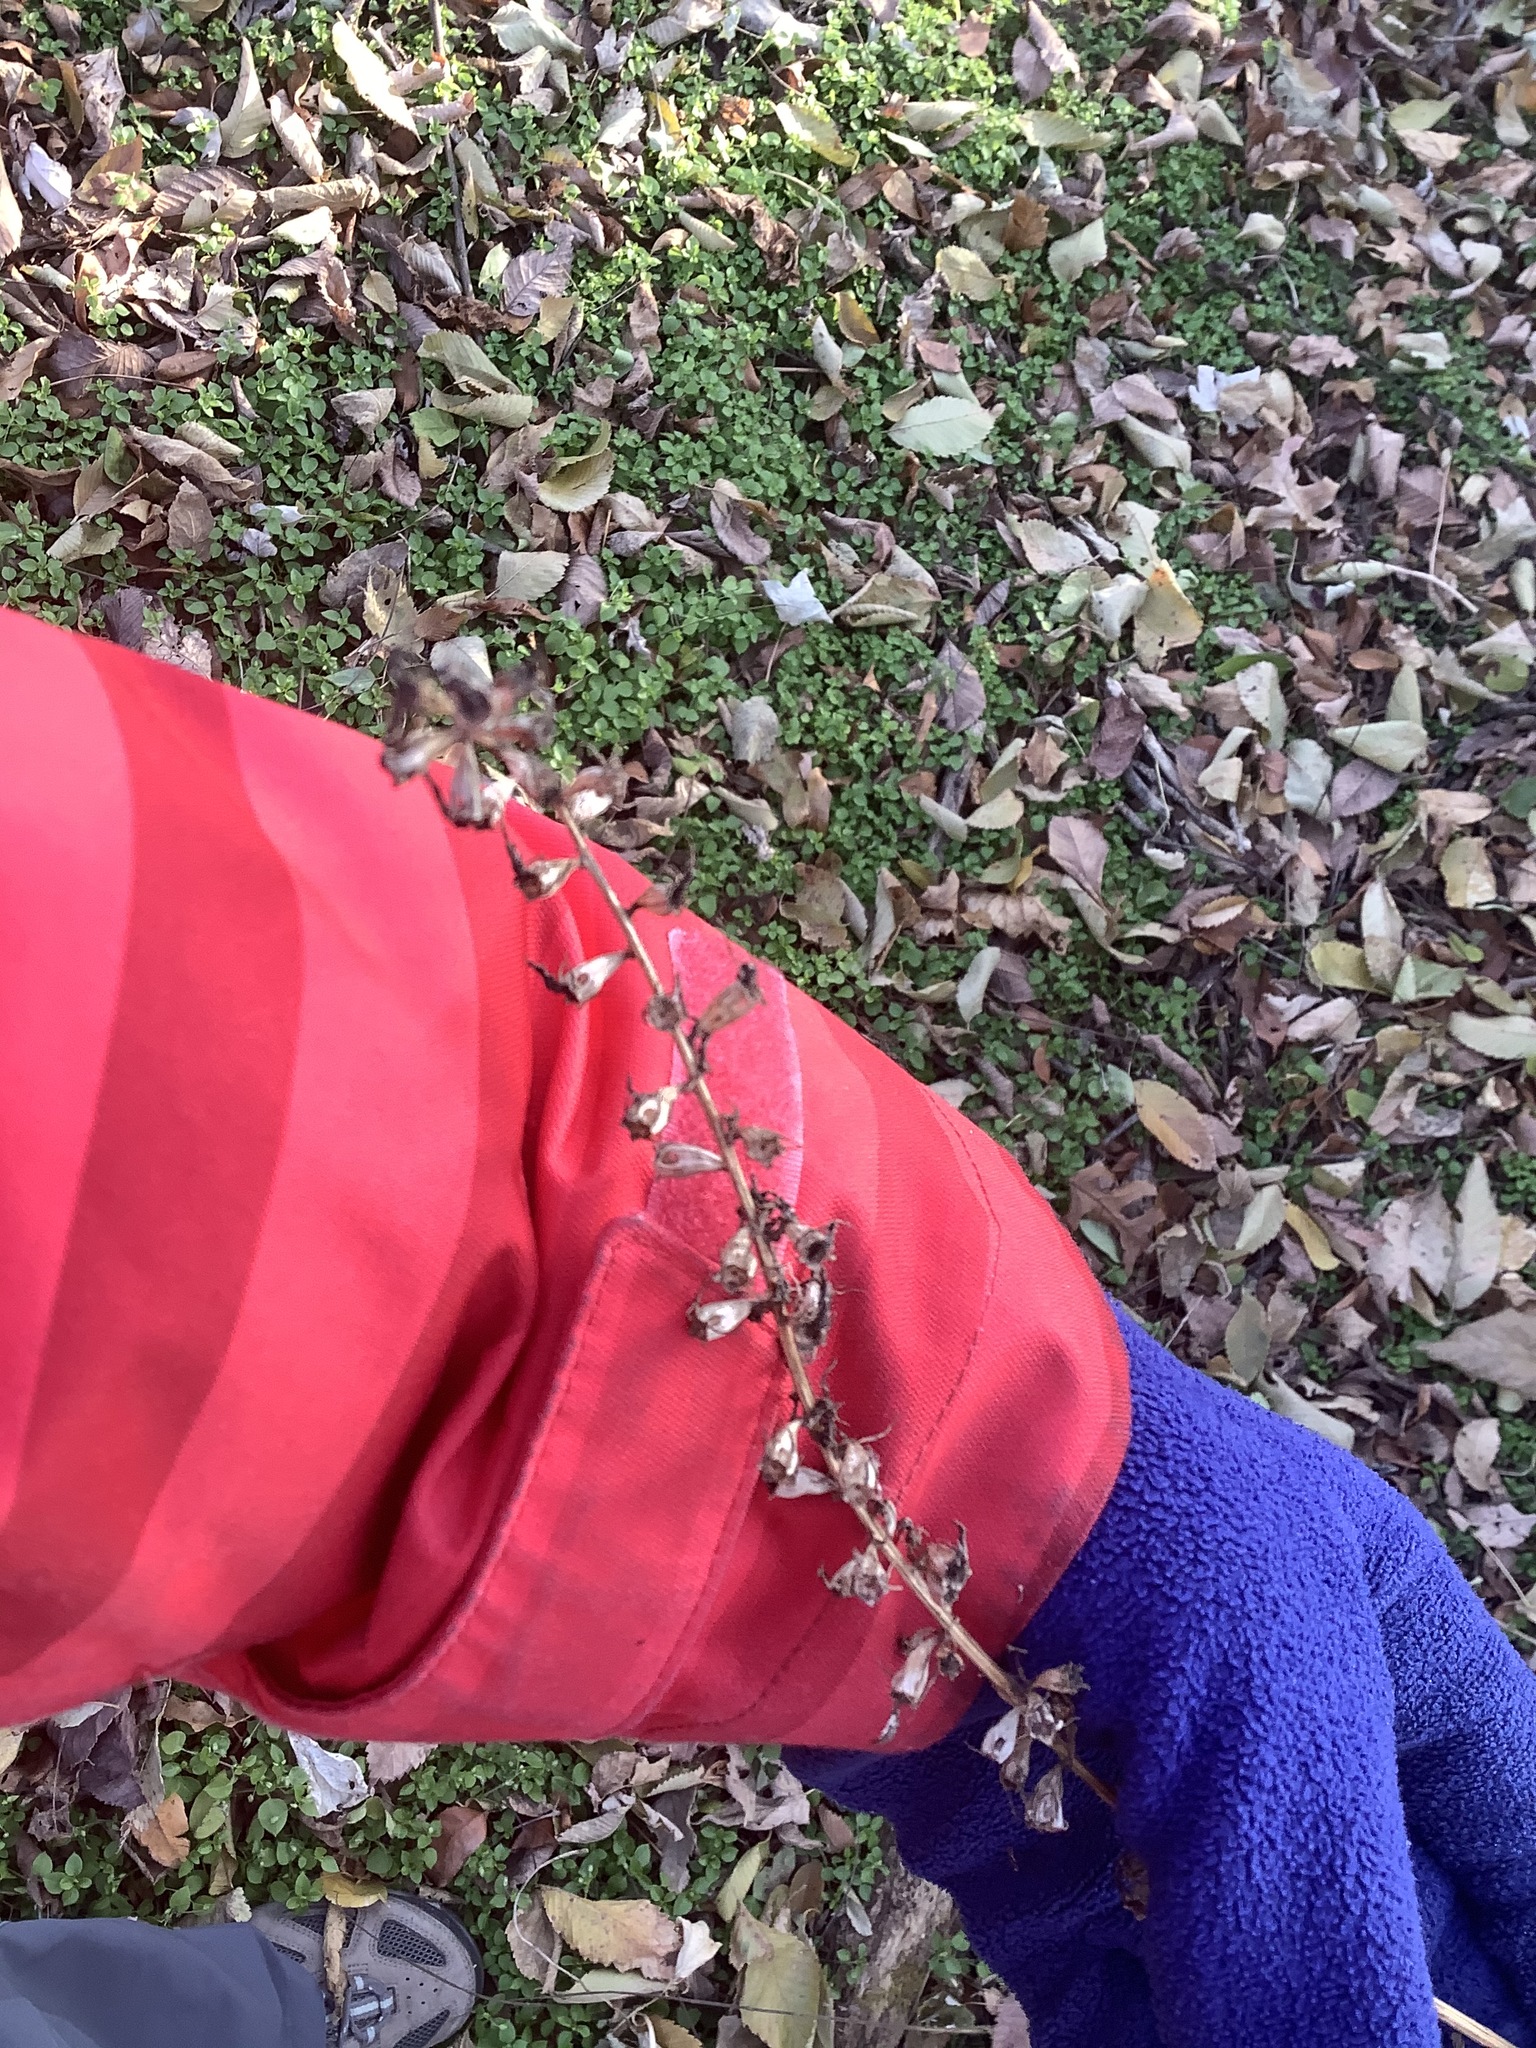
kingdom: Plantae
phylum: Tracheophyta
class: Magnoliopsida
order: Asterales
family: Campanulaceae
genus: Campanulastrum
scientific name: Campanulastrum americanum
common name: American bellflower
